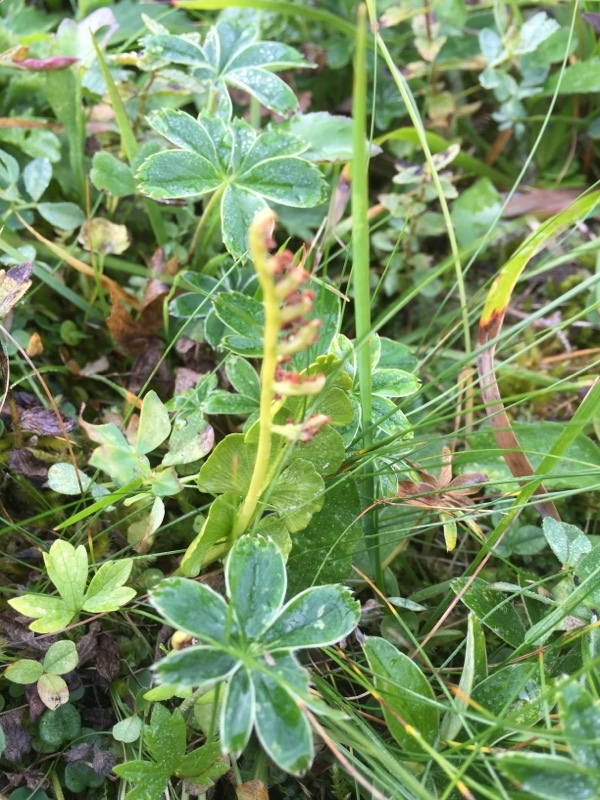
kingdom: Plantae
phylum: Tracheophyta
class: Polypodiopsida
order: Ophioglossales
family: Ophioglossaceae
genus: Botrychium
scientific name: Botrychium lunaria
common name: Moonwort
